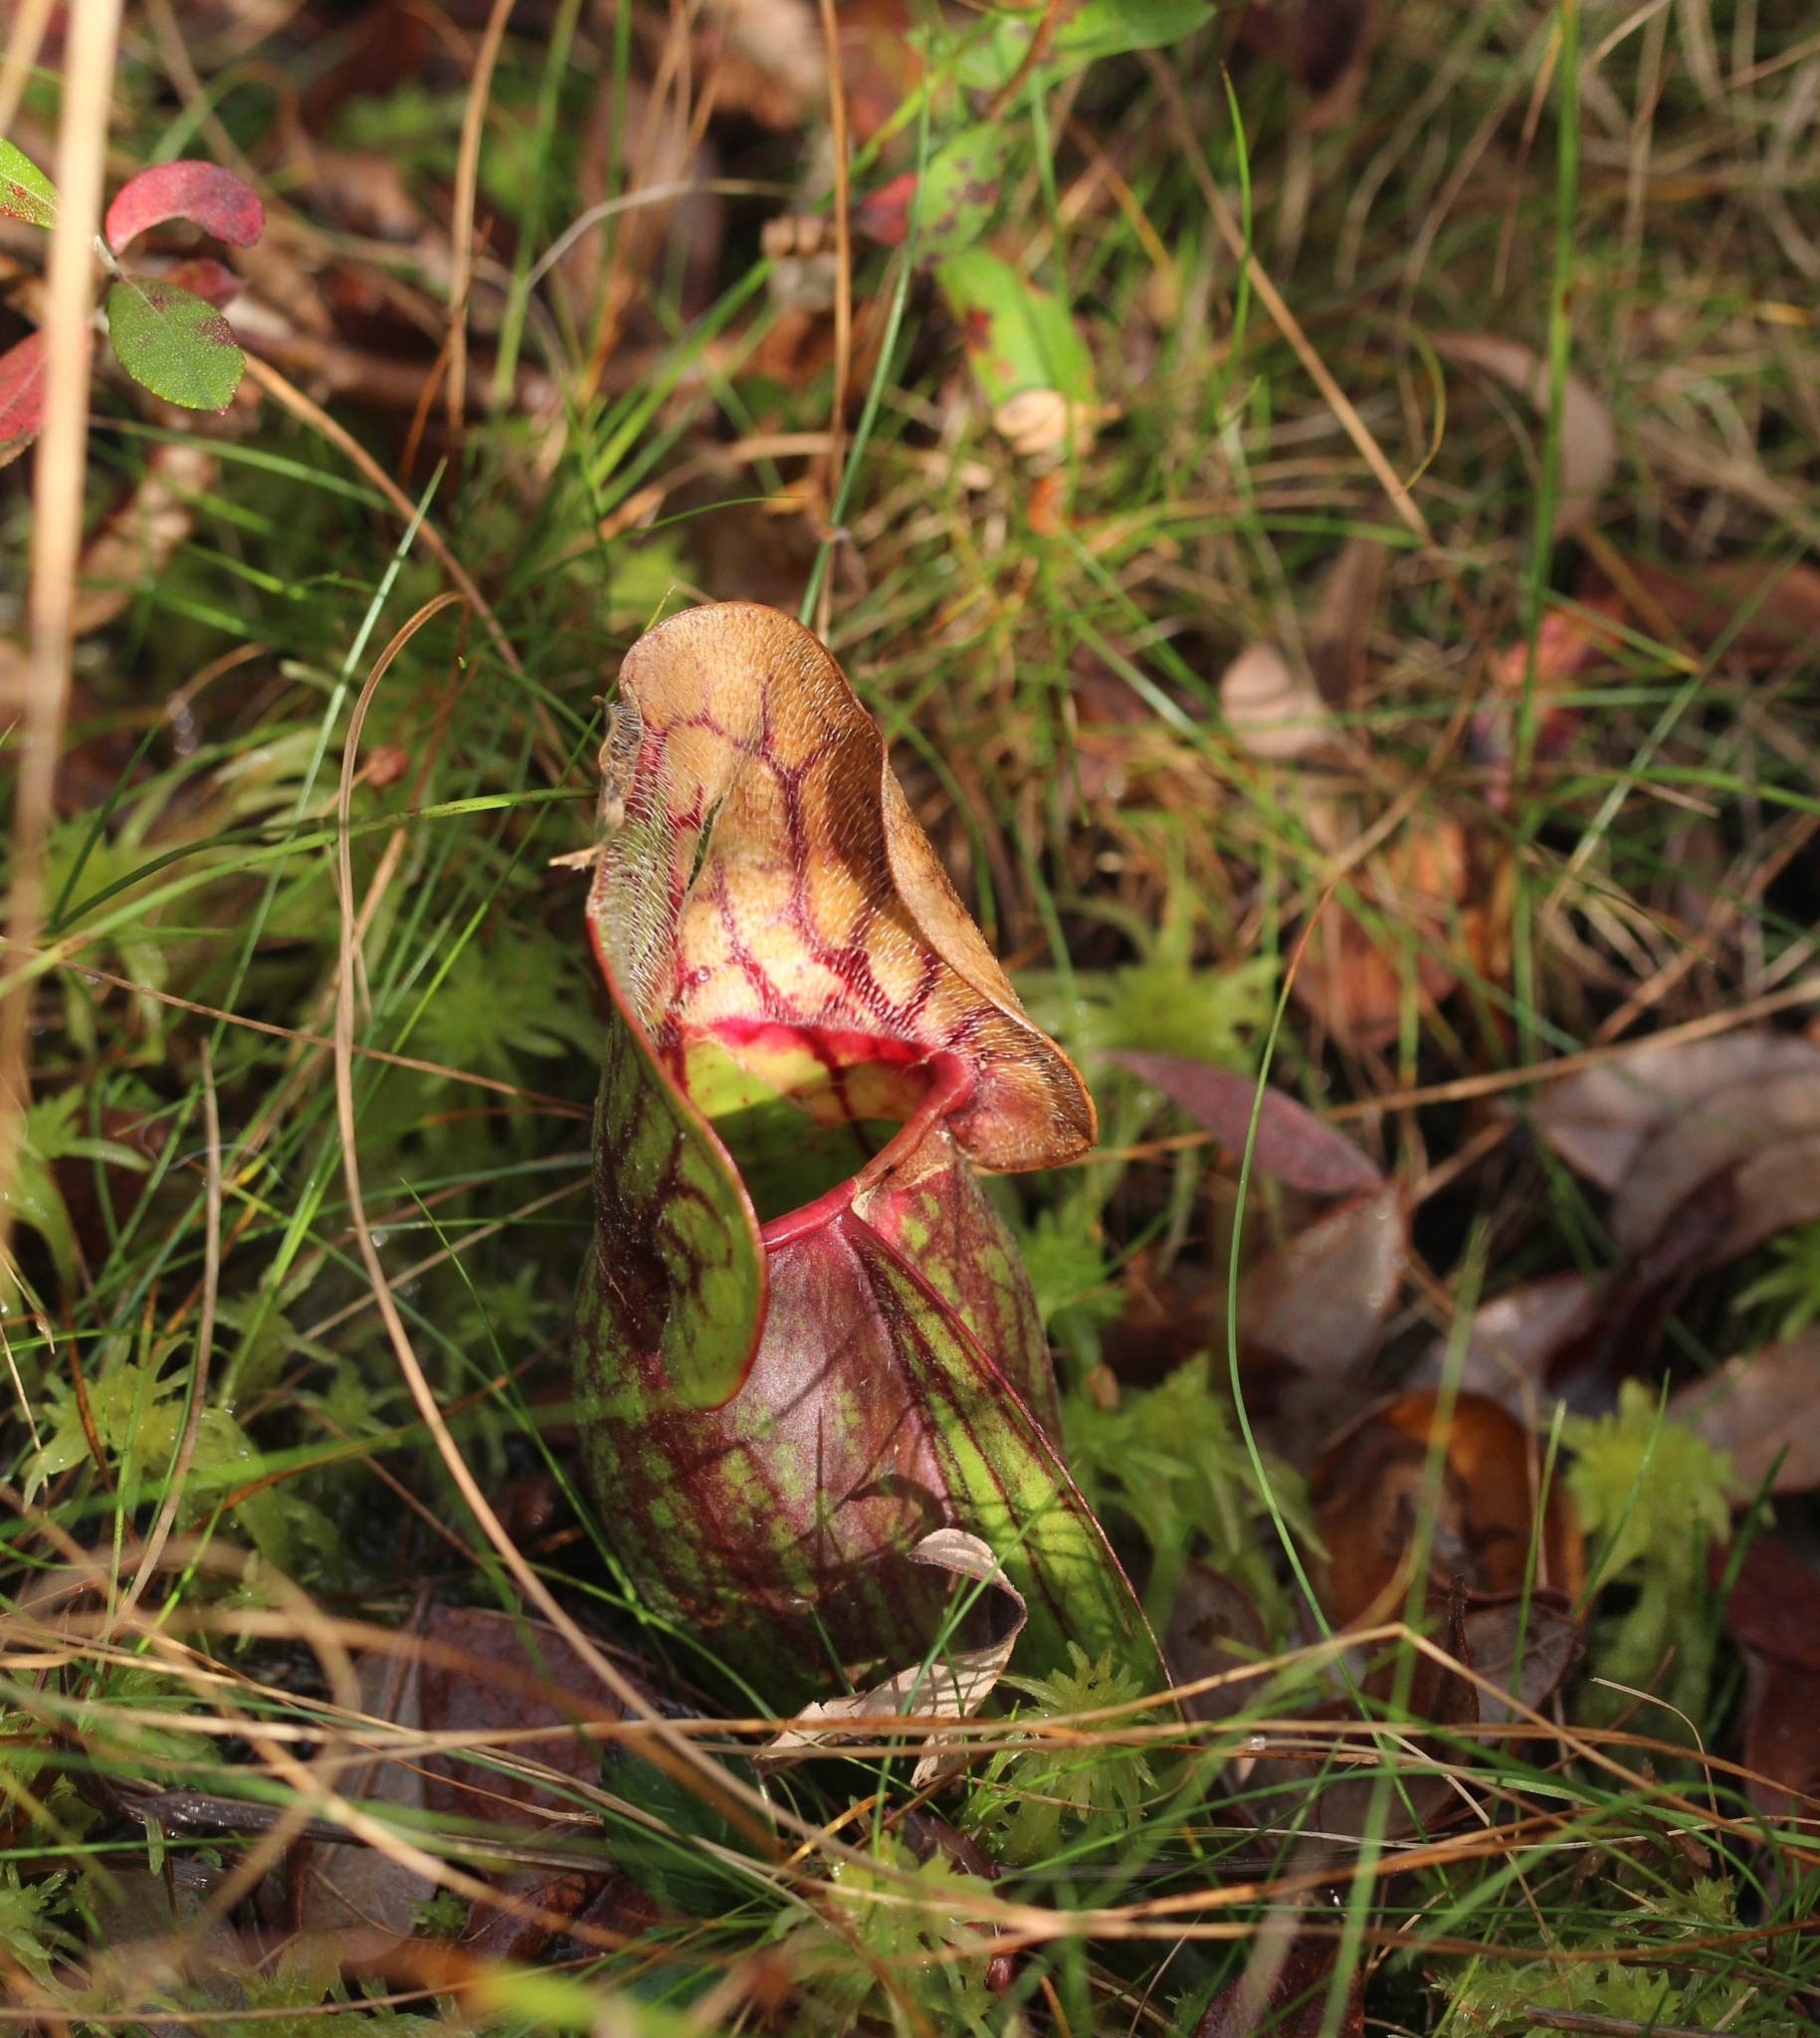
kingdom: Plantae
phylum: Tracheophyta
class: Magnoliopsida
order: Ericales
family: Sarraceniaceae
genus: Sarracenia
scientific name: Sarracenia purpurea
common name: Pitcherplant
